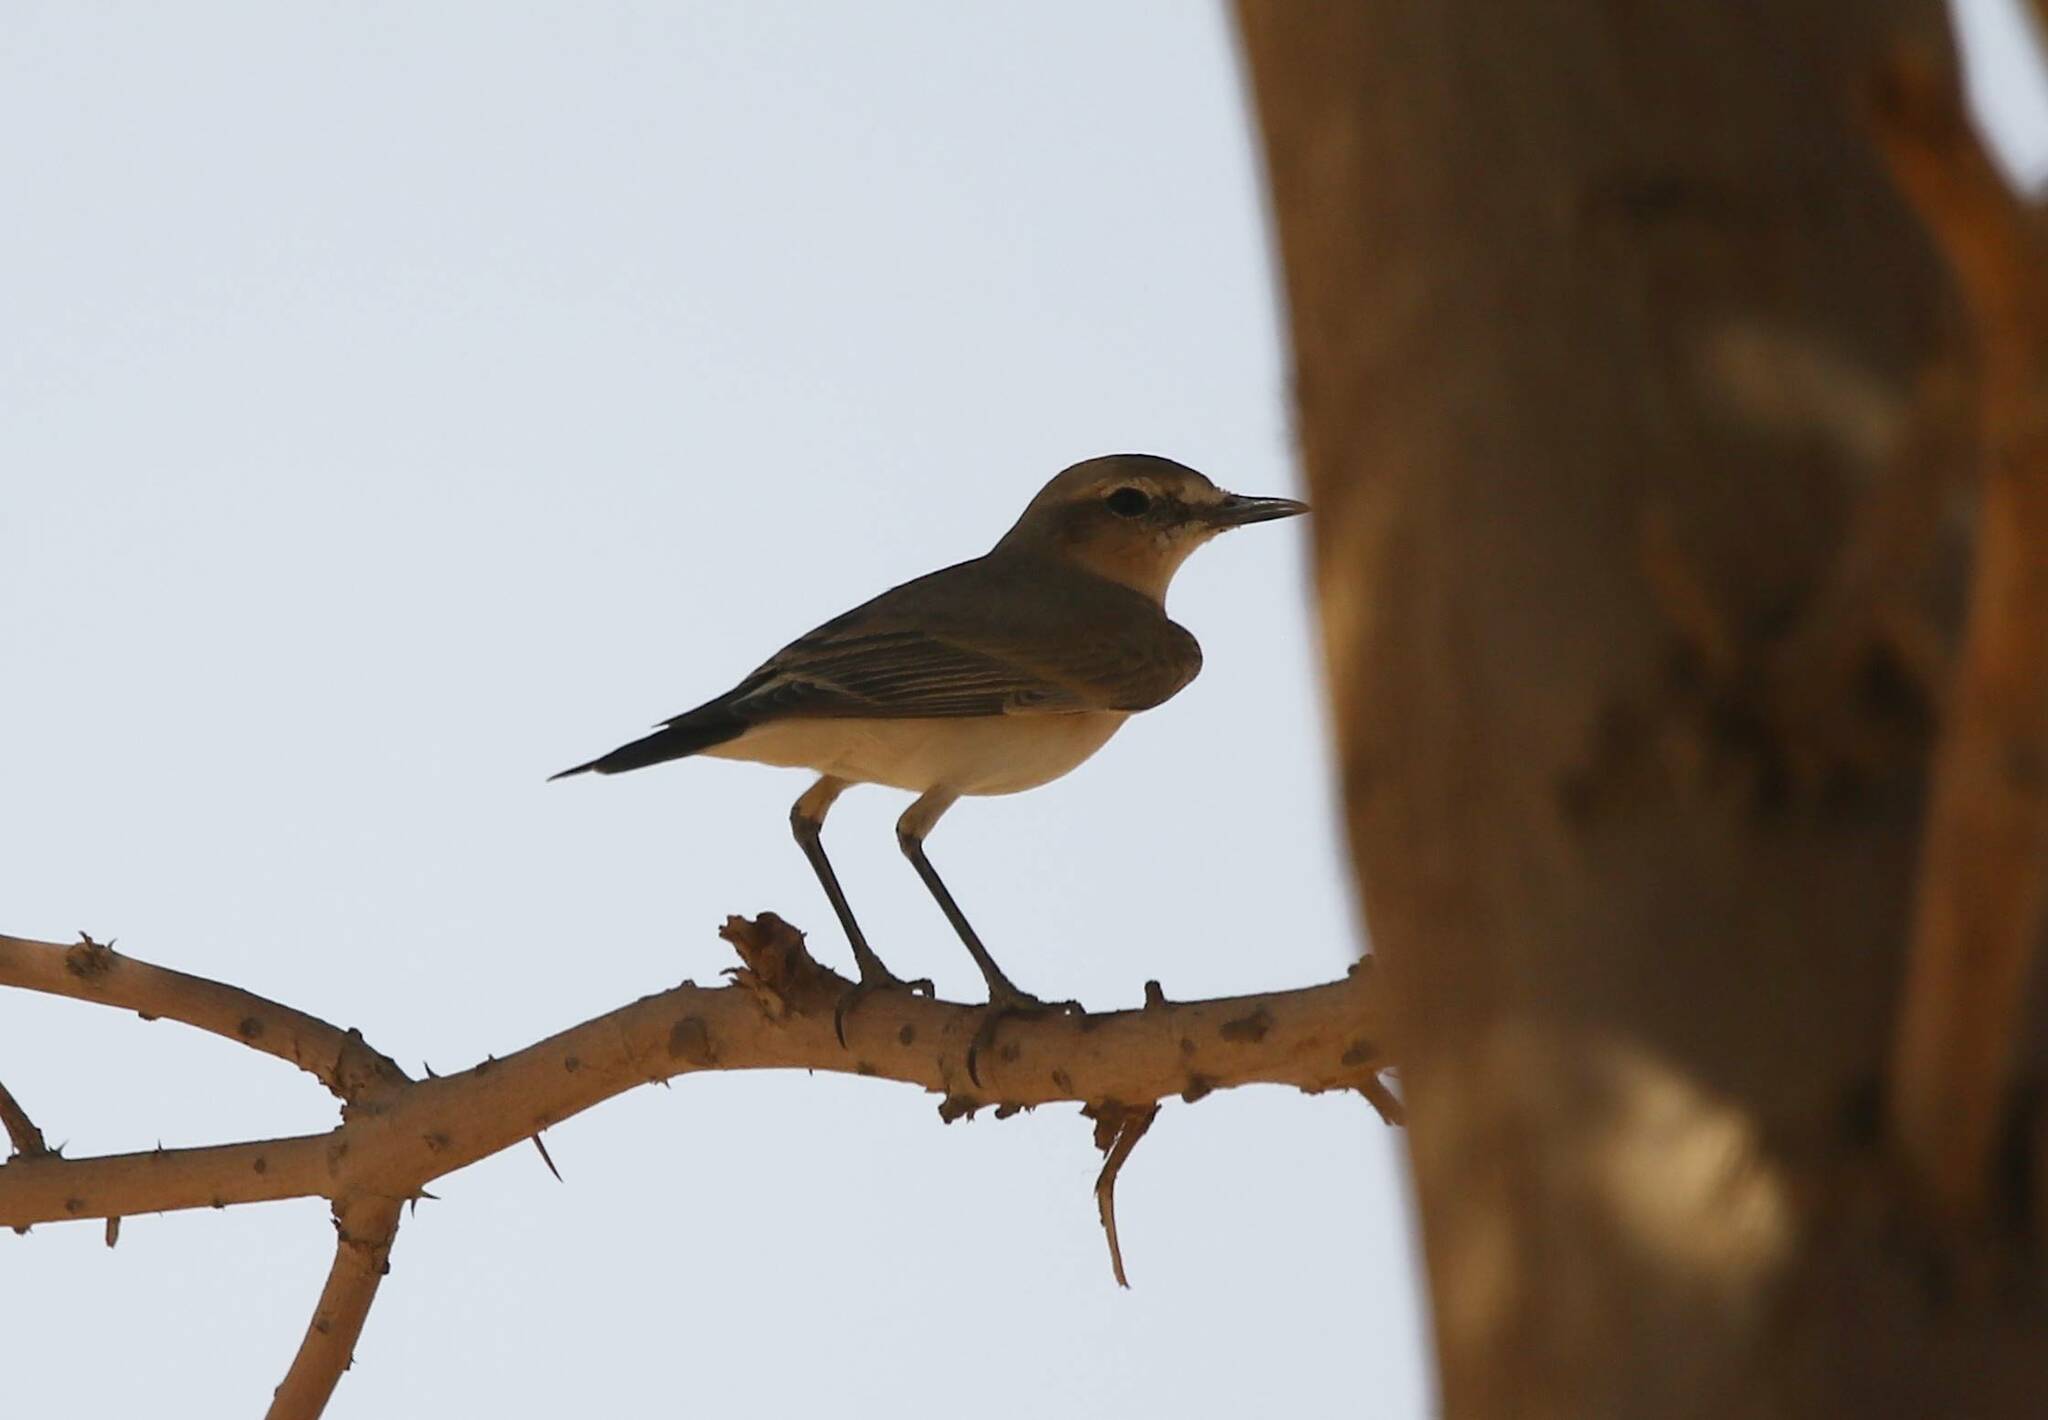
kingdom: Animalia
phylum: Chordata
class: Aves
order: Passeriformes
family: Muscicapidae
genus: Oenanthe
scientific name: Oenanthe isabellina
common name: Isabelline wheatear
